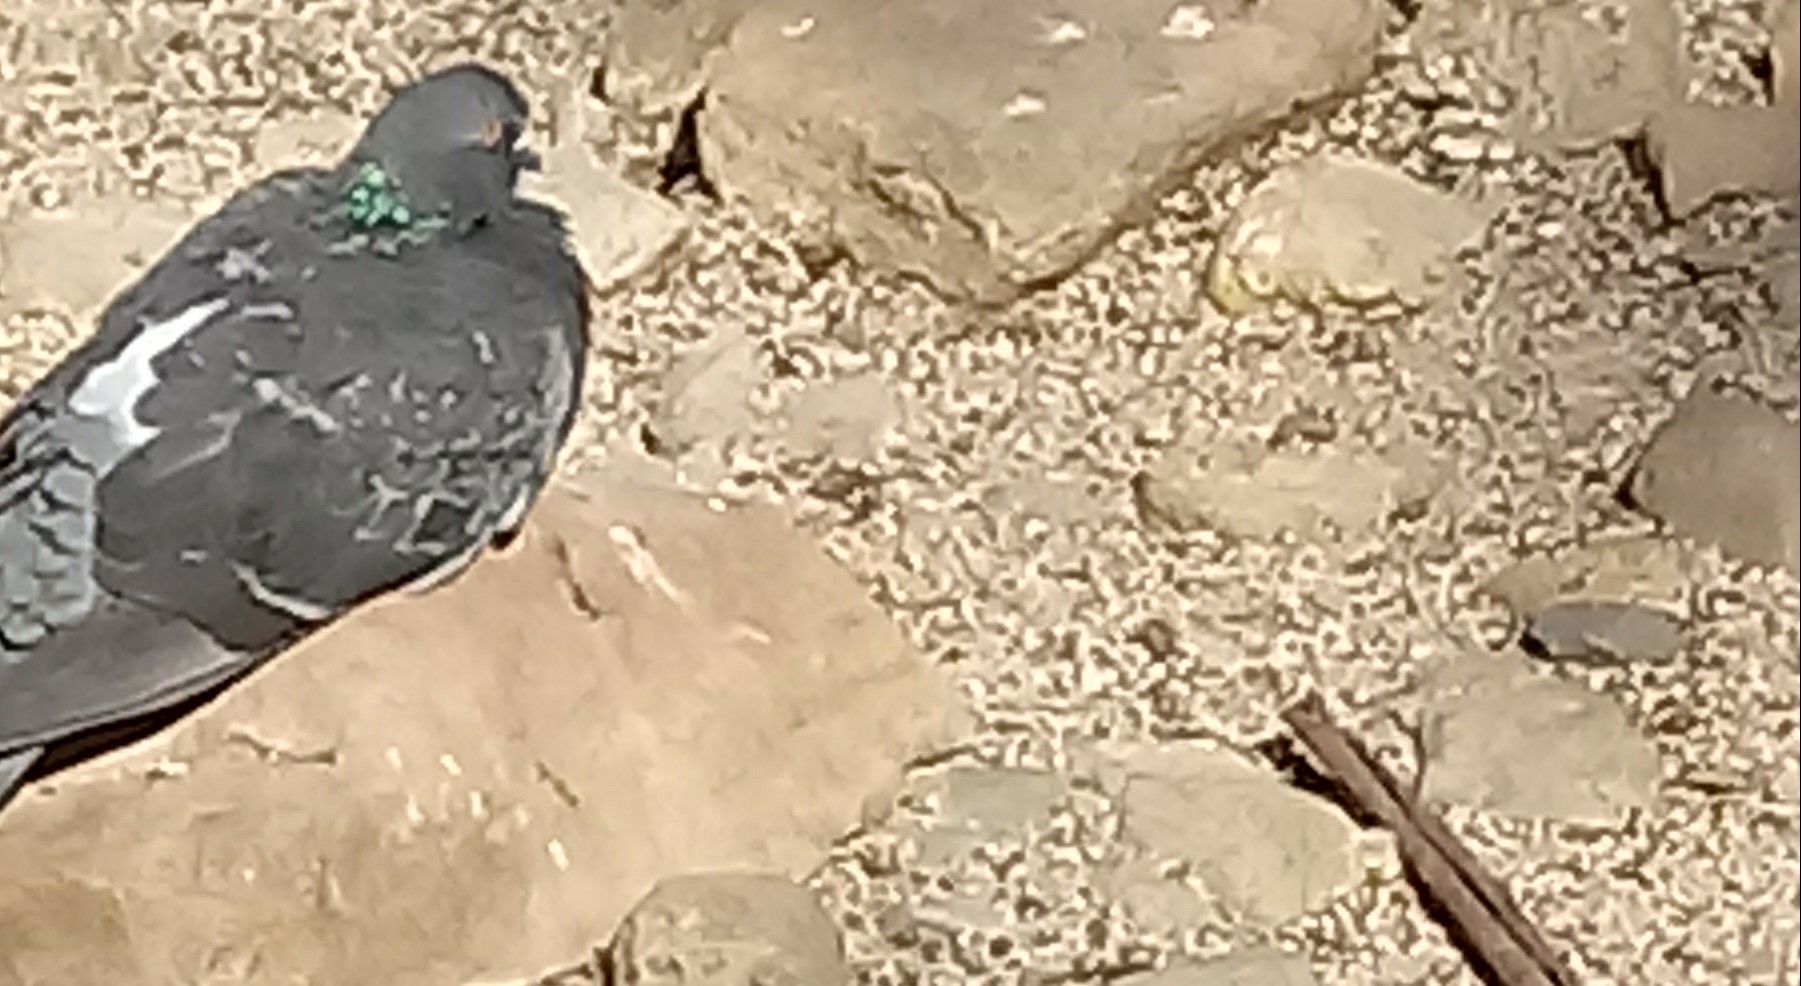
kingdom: Animalia
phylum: Chordata
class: Aves
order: Columbiformes
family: Columbidae
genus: Columba
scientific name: Columba livia
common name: Rock pigeon
